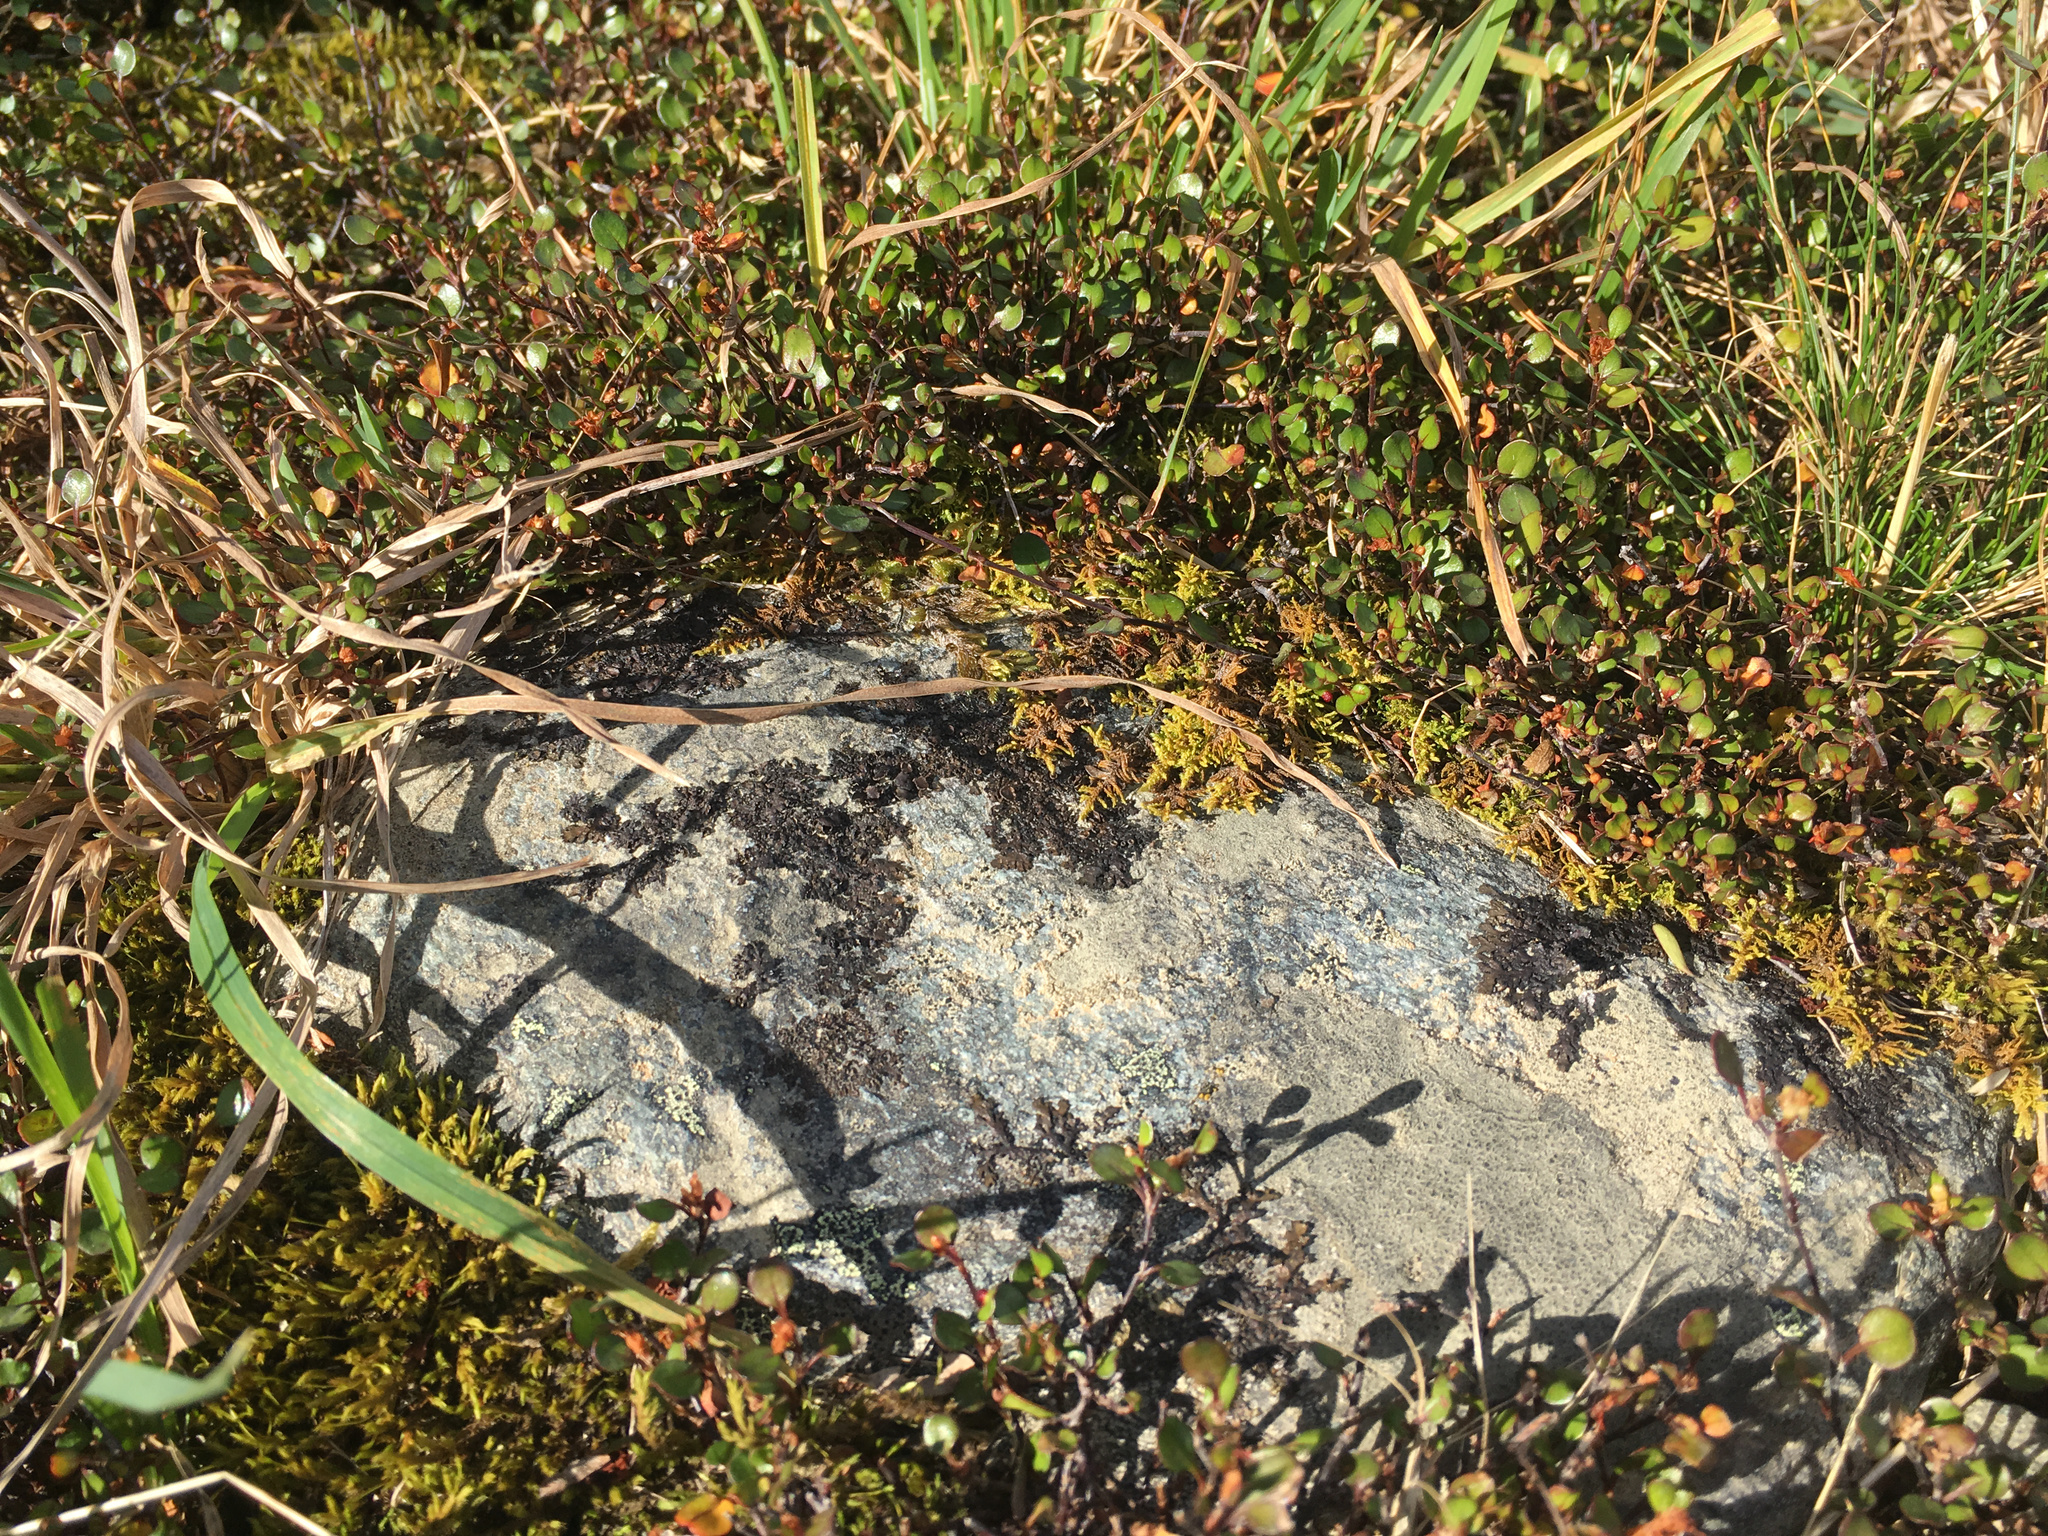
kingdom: Plantae
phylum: Tracheophyta
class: Magnoliopsida
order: Caryophyllales
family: Polygonaceae
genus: Muehlenbeckia
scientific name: Muehlenbeckia axillaris
